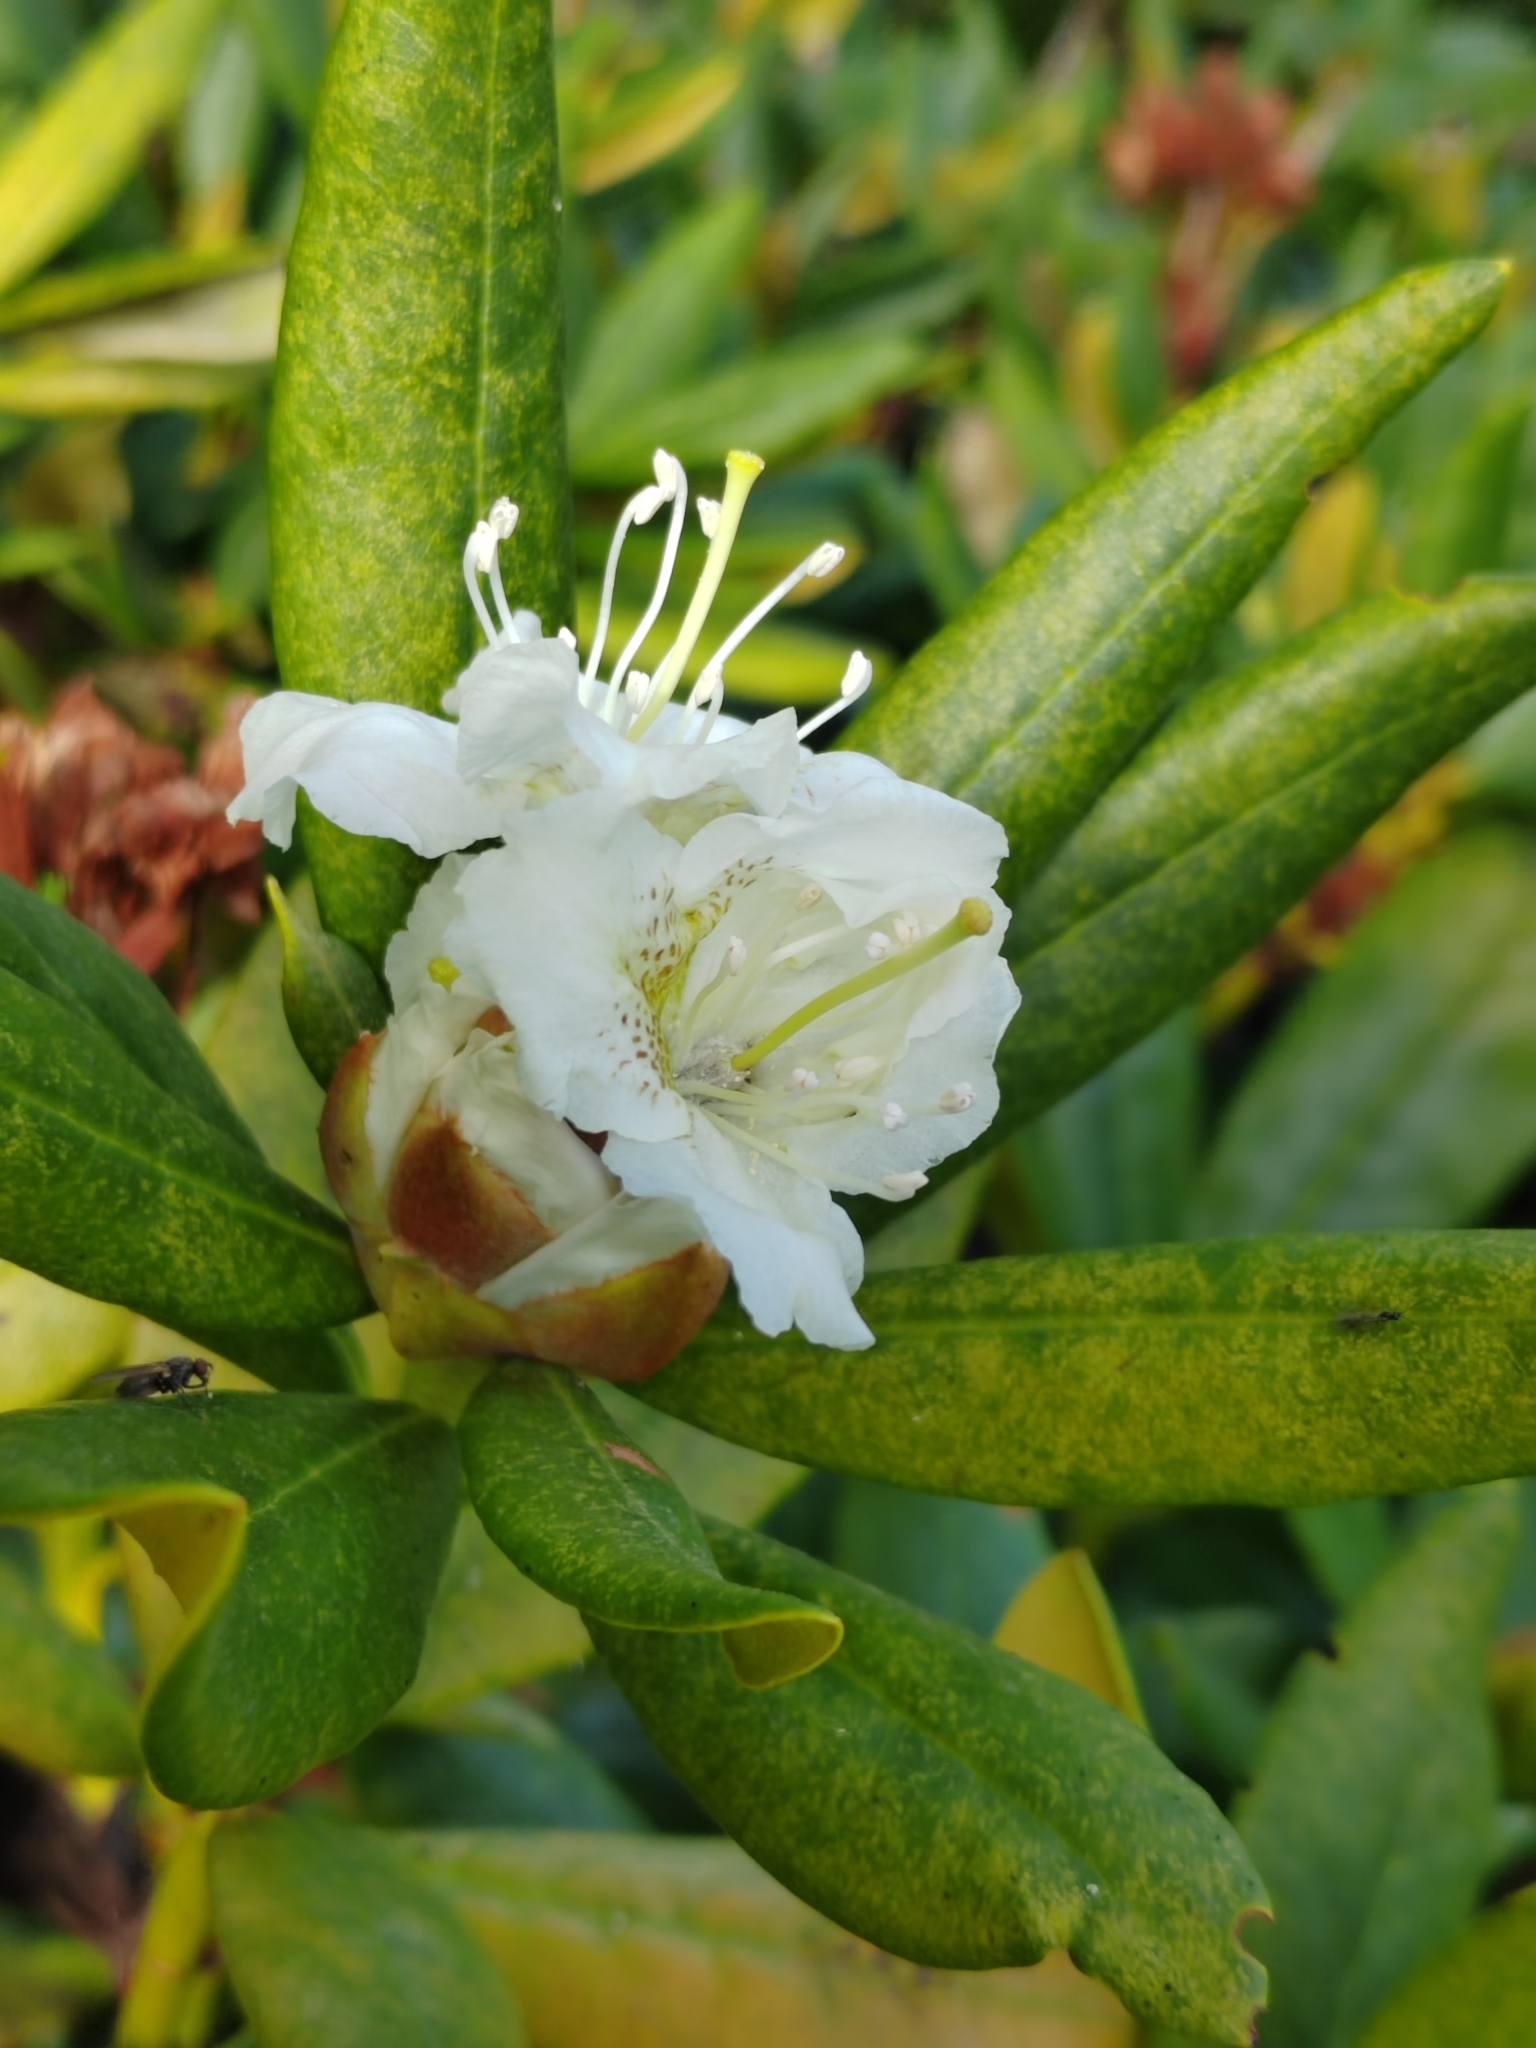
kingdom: Plantae
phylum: Tracheophyta
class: Magnoliopsida
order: Ericales
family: Ericaceae
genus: Rhododendron
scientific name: Rhododendron caucasicum
